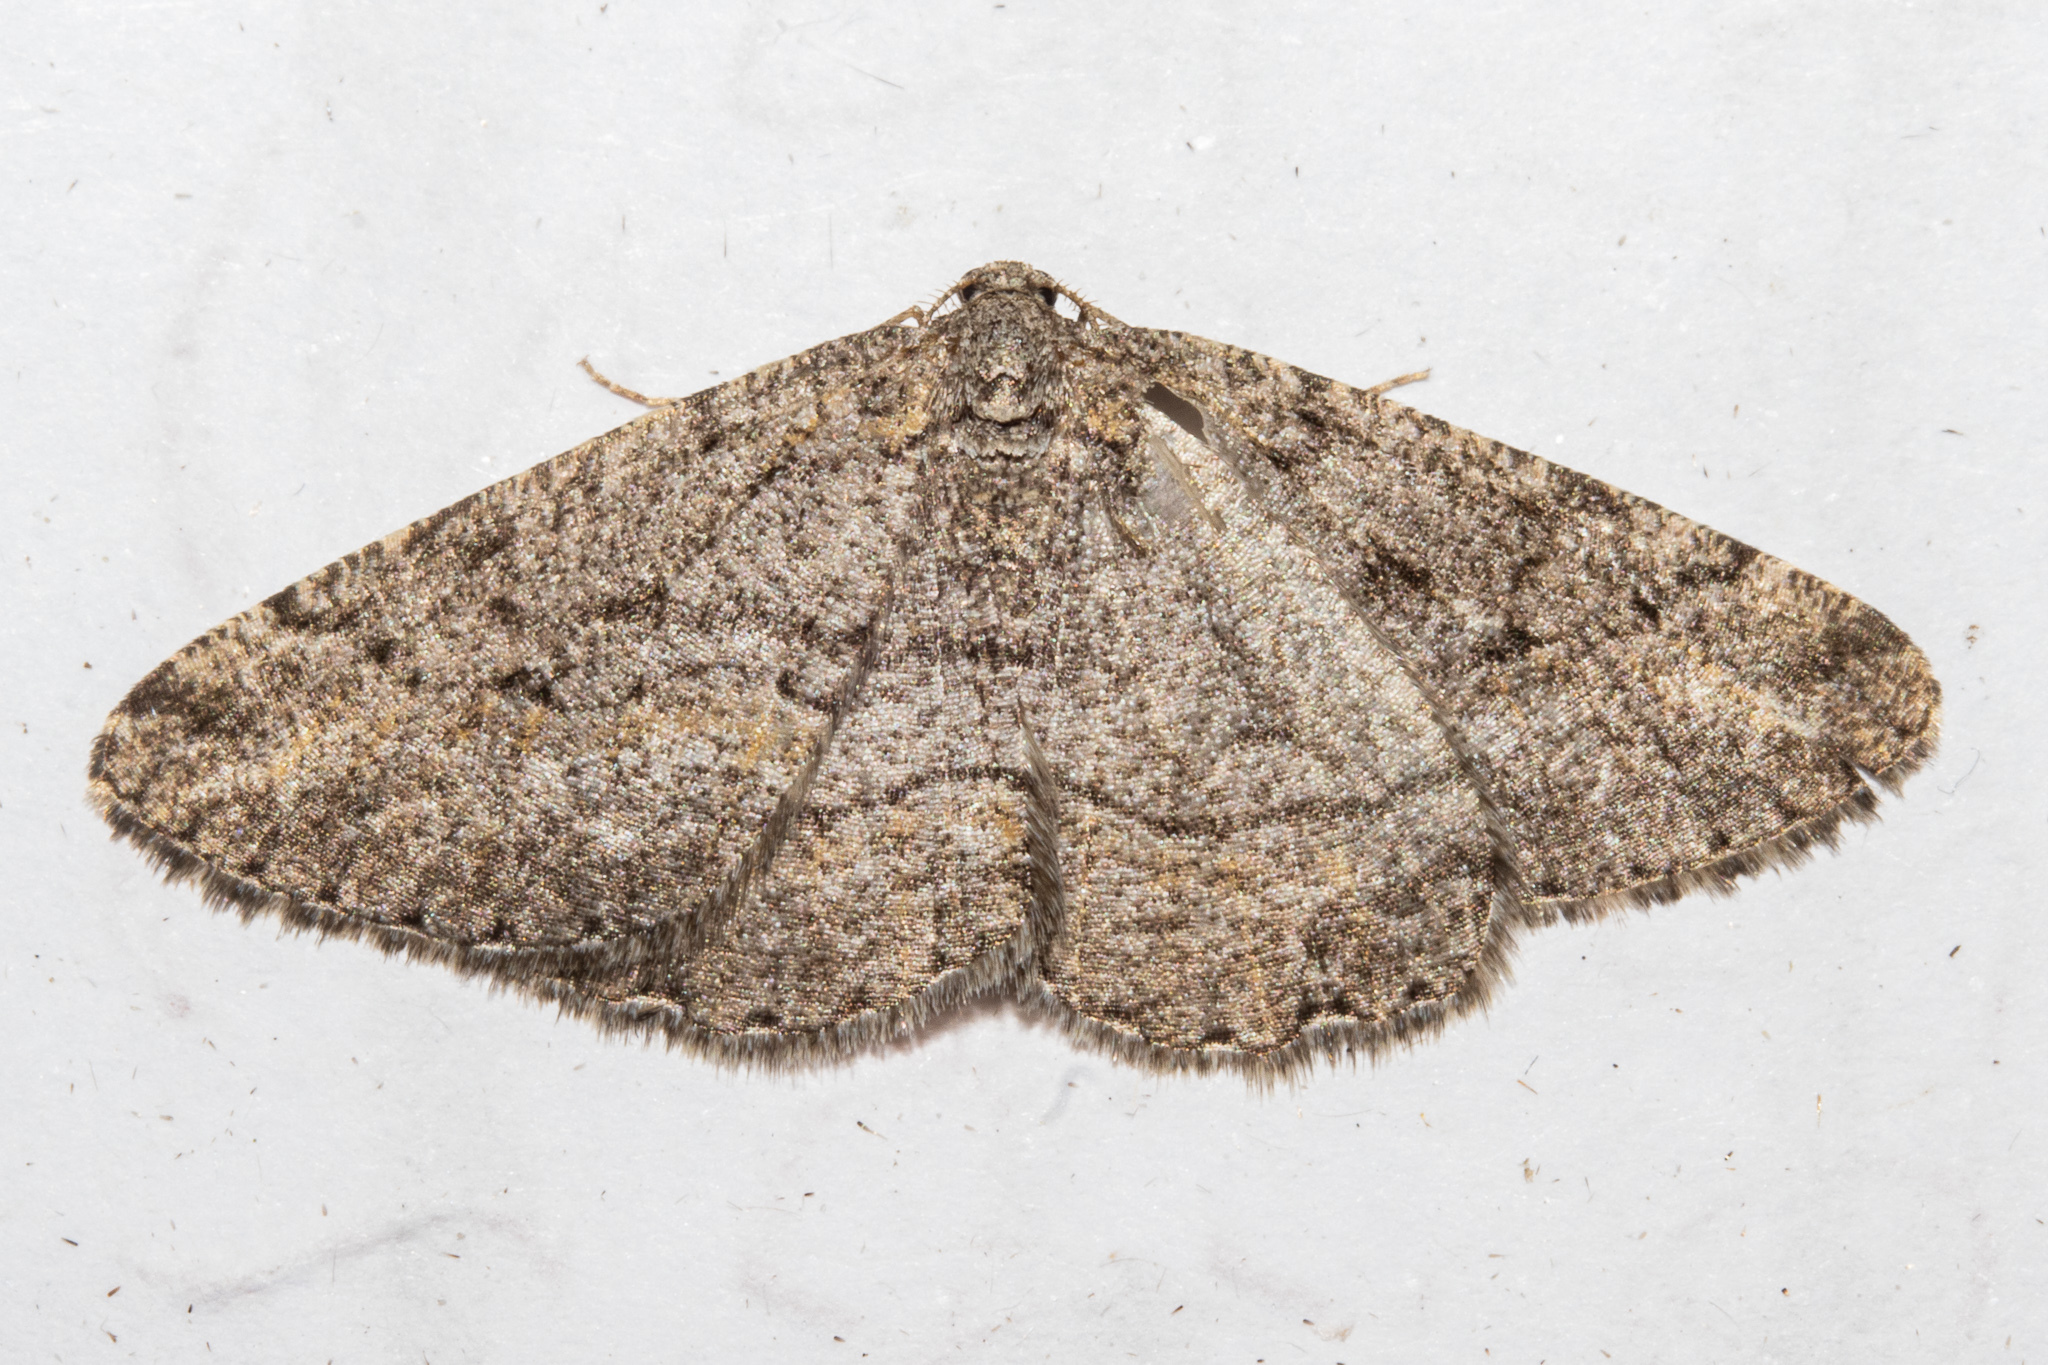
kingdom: Animalia
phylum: Arthropoda
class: Insecta
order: Lepidoptera
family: Geometridae
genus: Zermizinga
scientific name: Zermizinga indocilisaria
